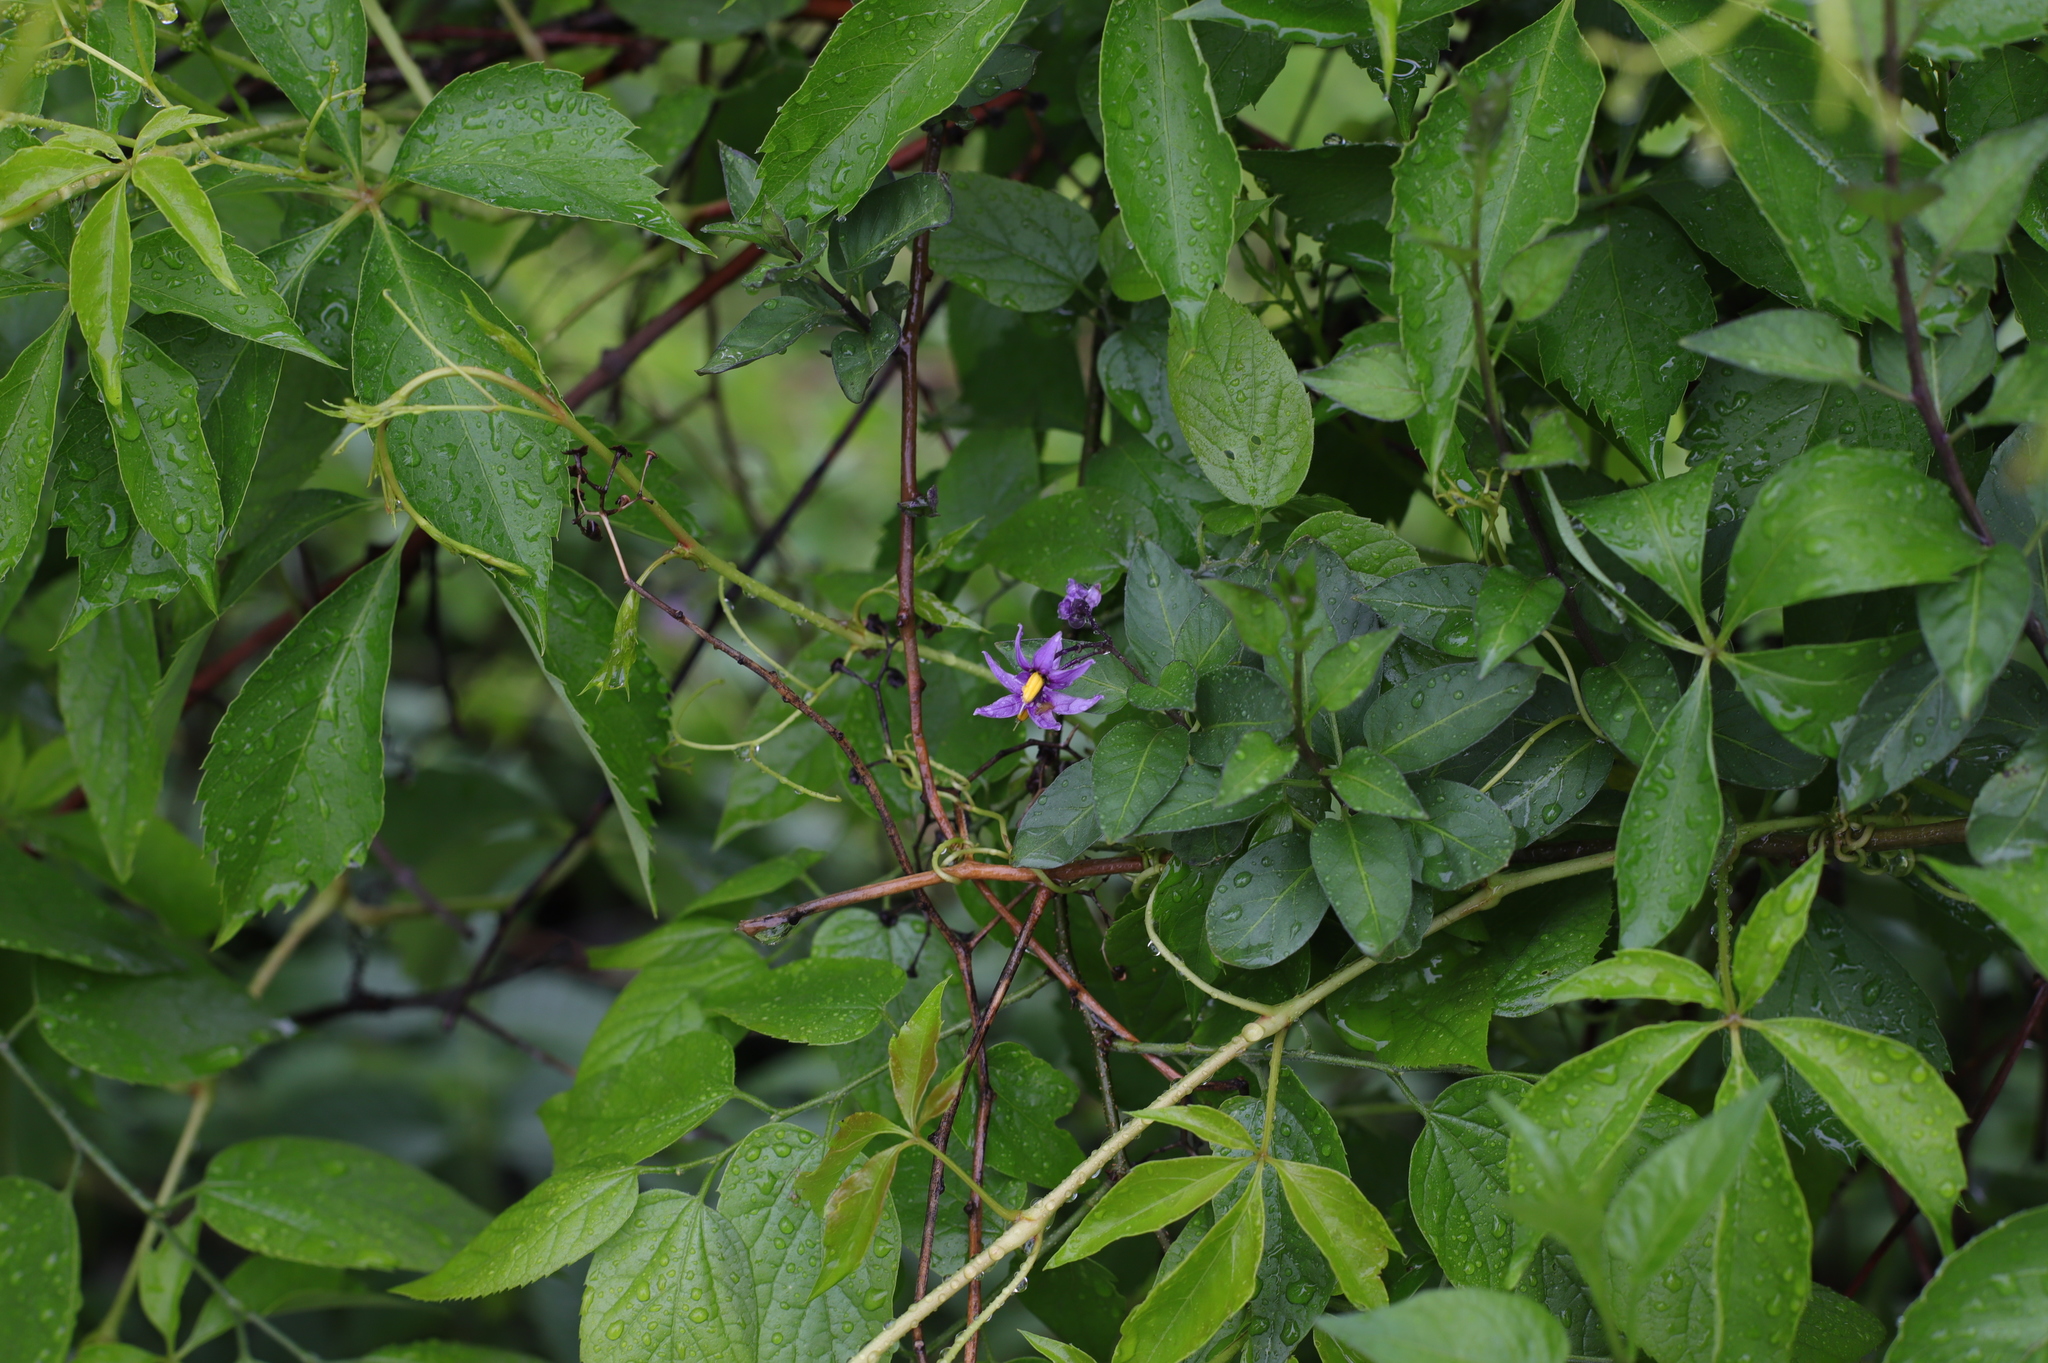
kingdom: Plantae
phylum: Tracheophyta
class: Magnoliopsida
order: Solanales
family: Solanaceae
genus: Solanum
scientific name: Solanum dulcamara
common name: Climbing nightshade
